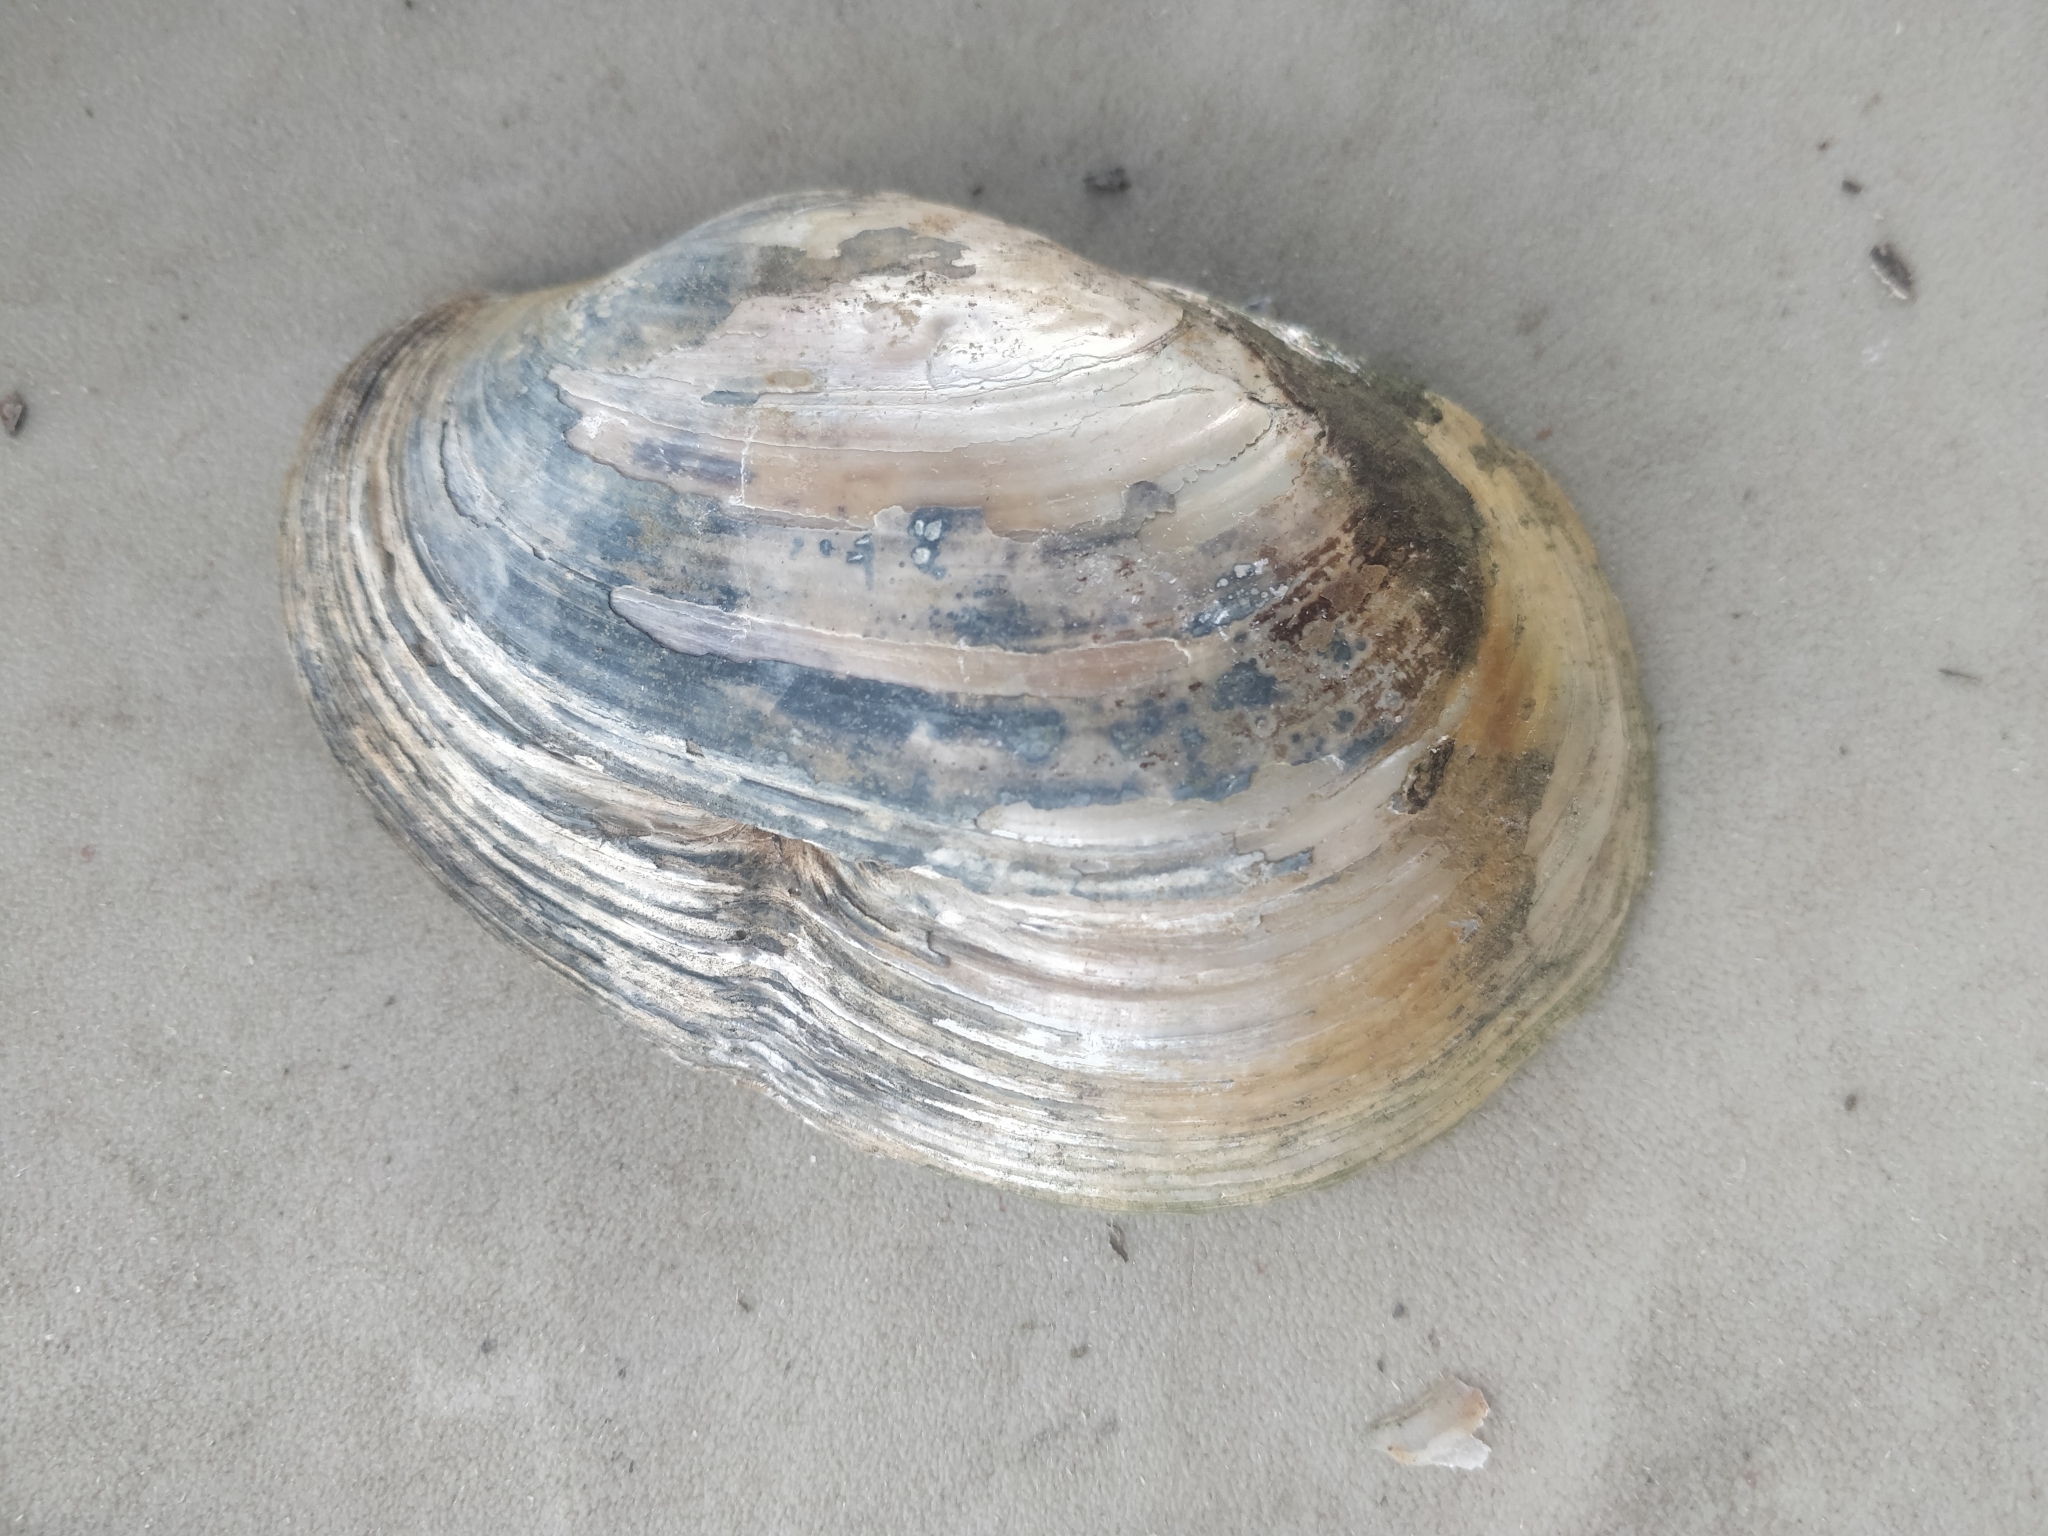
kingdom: Animalia
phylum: Mollusca
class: Bivalvia
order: Unionida
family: Unionidae
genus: Lampsilis
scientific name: Lampsilis cardium
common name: Plain pocketbook
